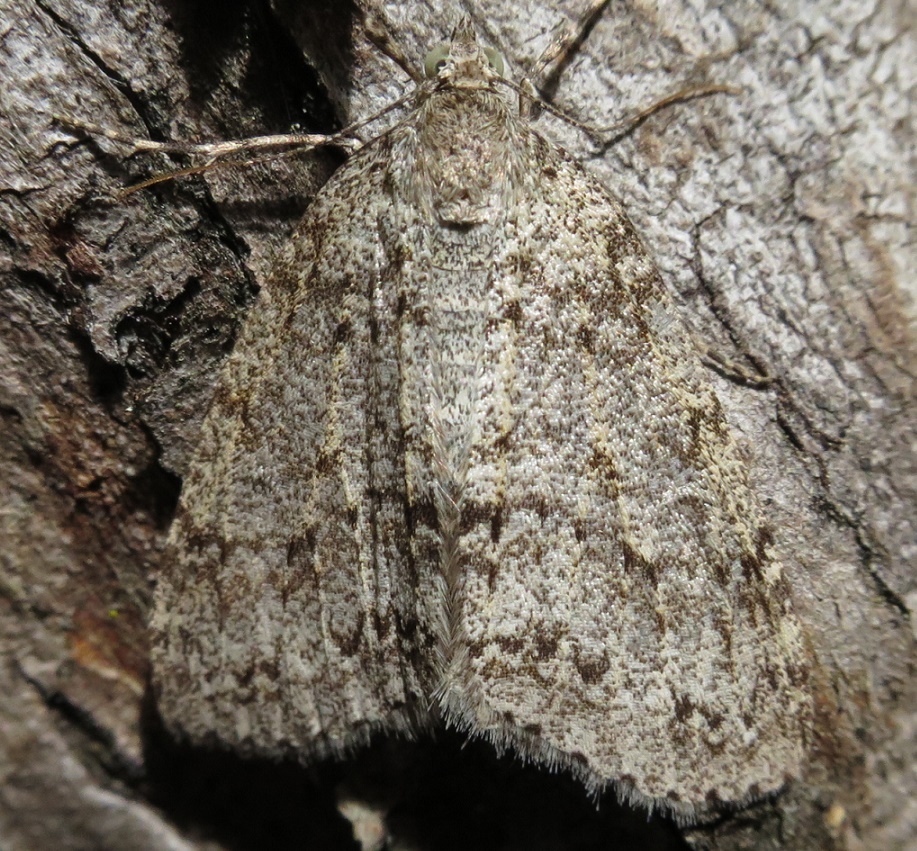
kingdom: Animalia
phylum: Arthropoda
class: Insecta
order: Lepidoptera
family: Geometridae
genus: Pseudocoremia
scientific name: Pseudocoremia fenerata
